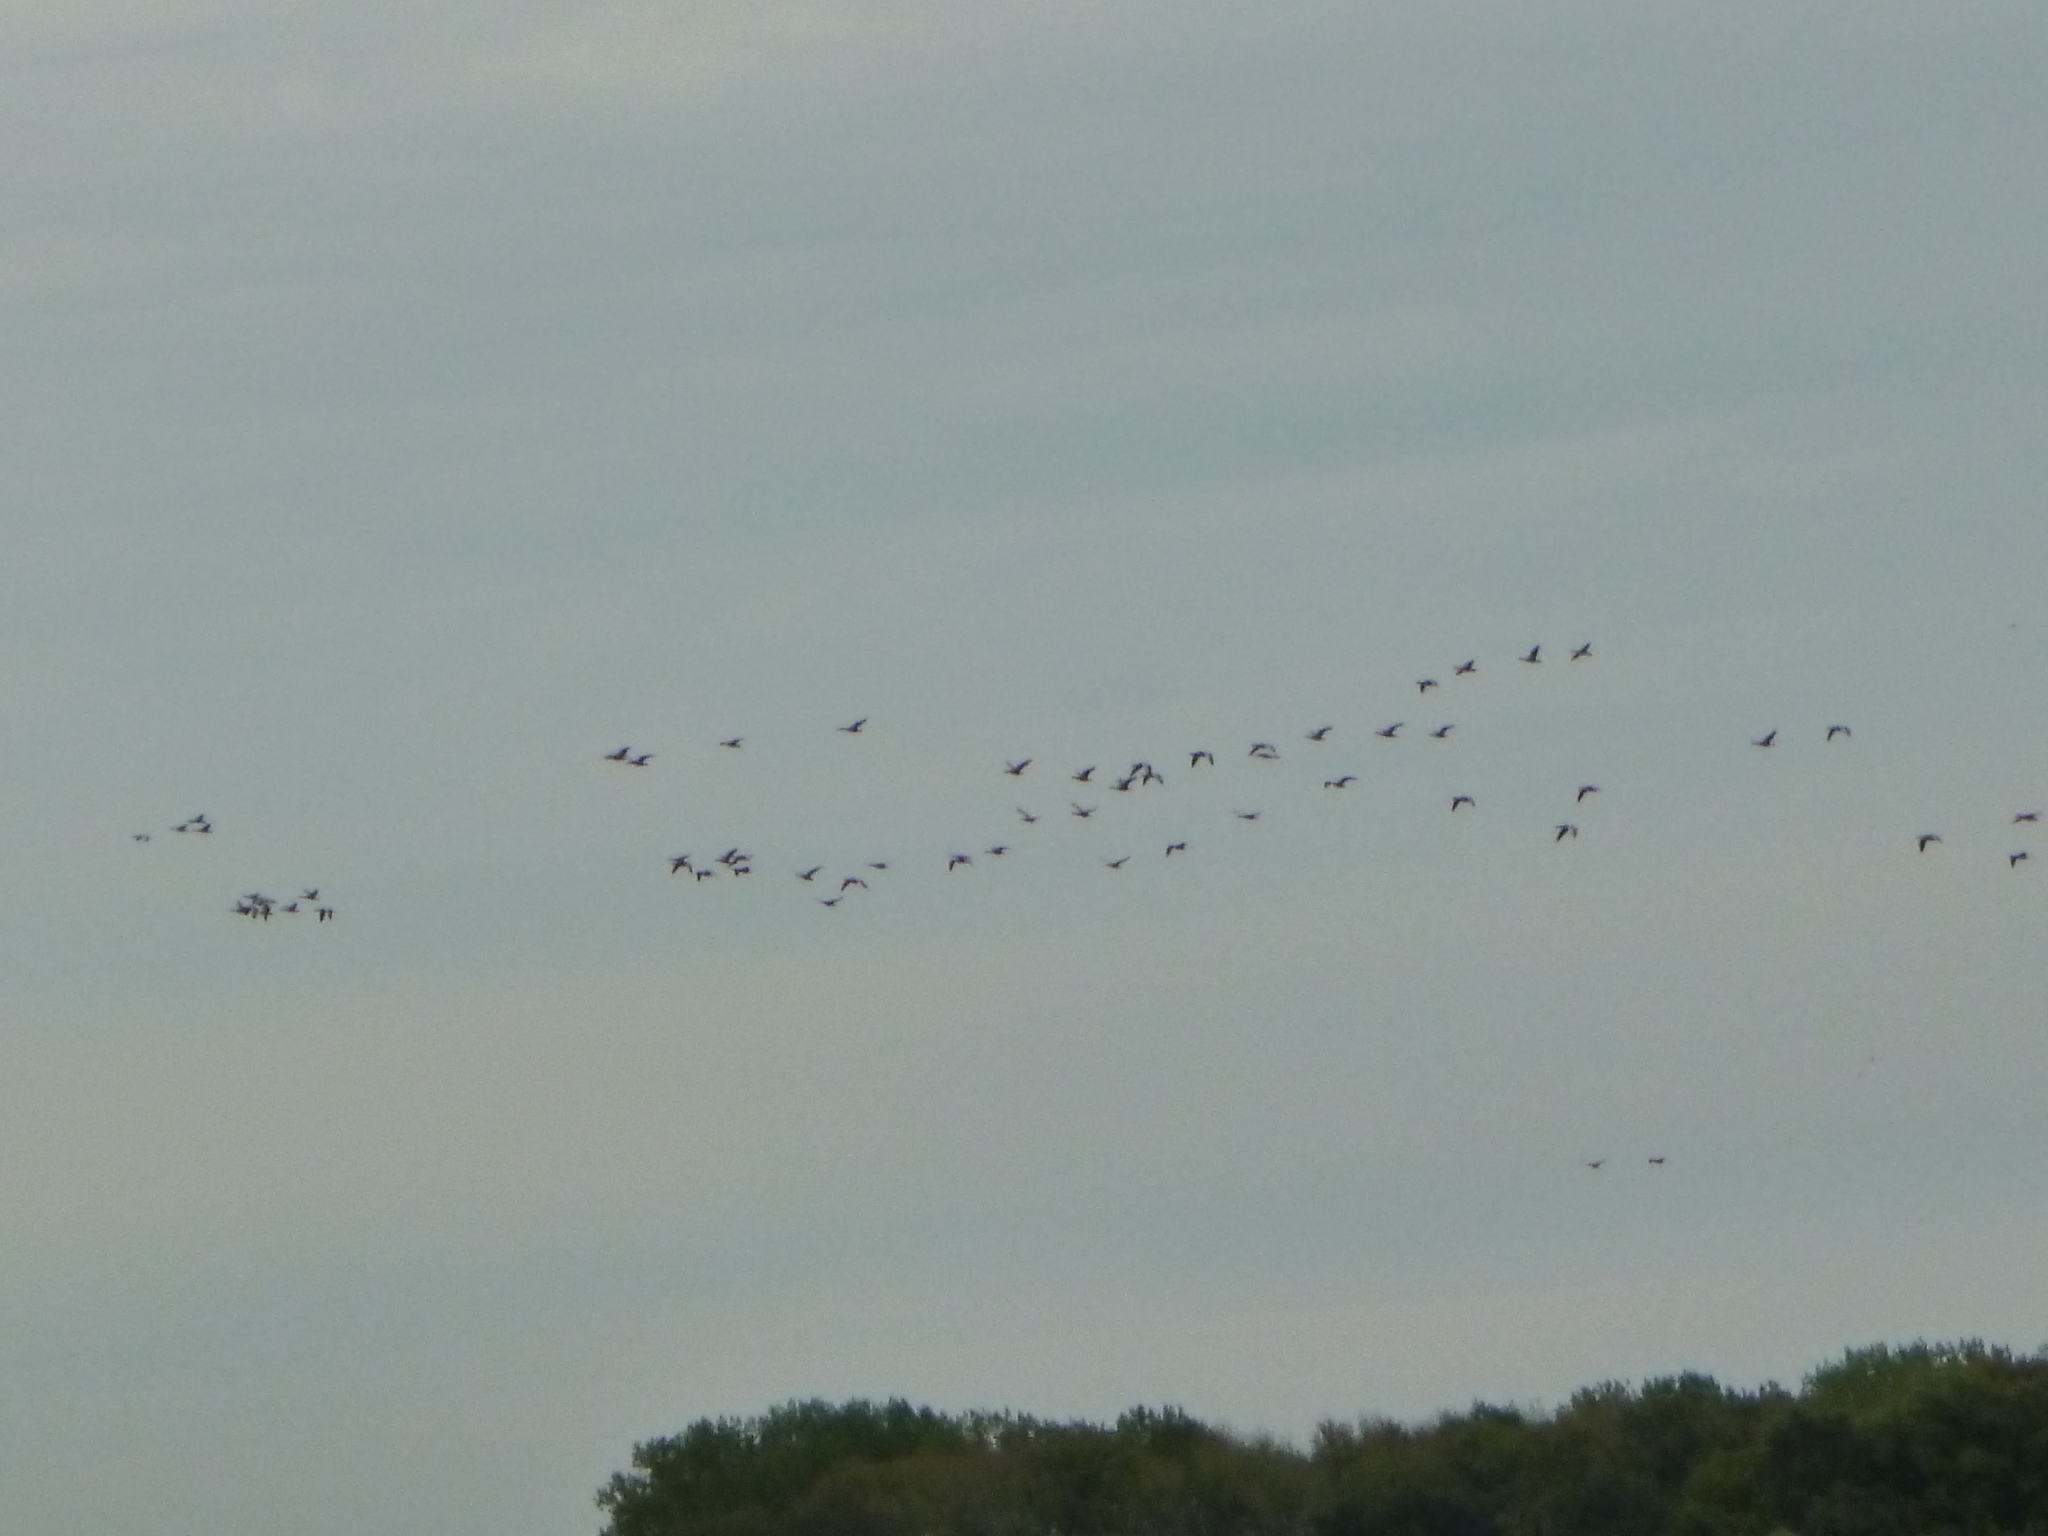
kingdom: Animalia
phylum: Chordata
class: Aves
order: Anseriformes
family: Anatidae
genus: Anser
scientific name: Anser anser
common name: Greylag goose
